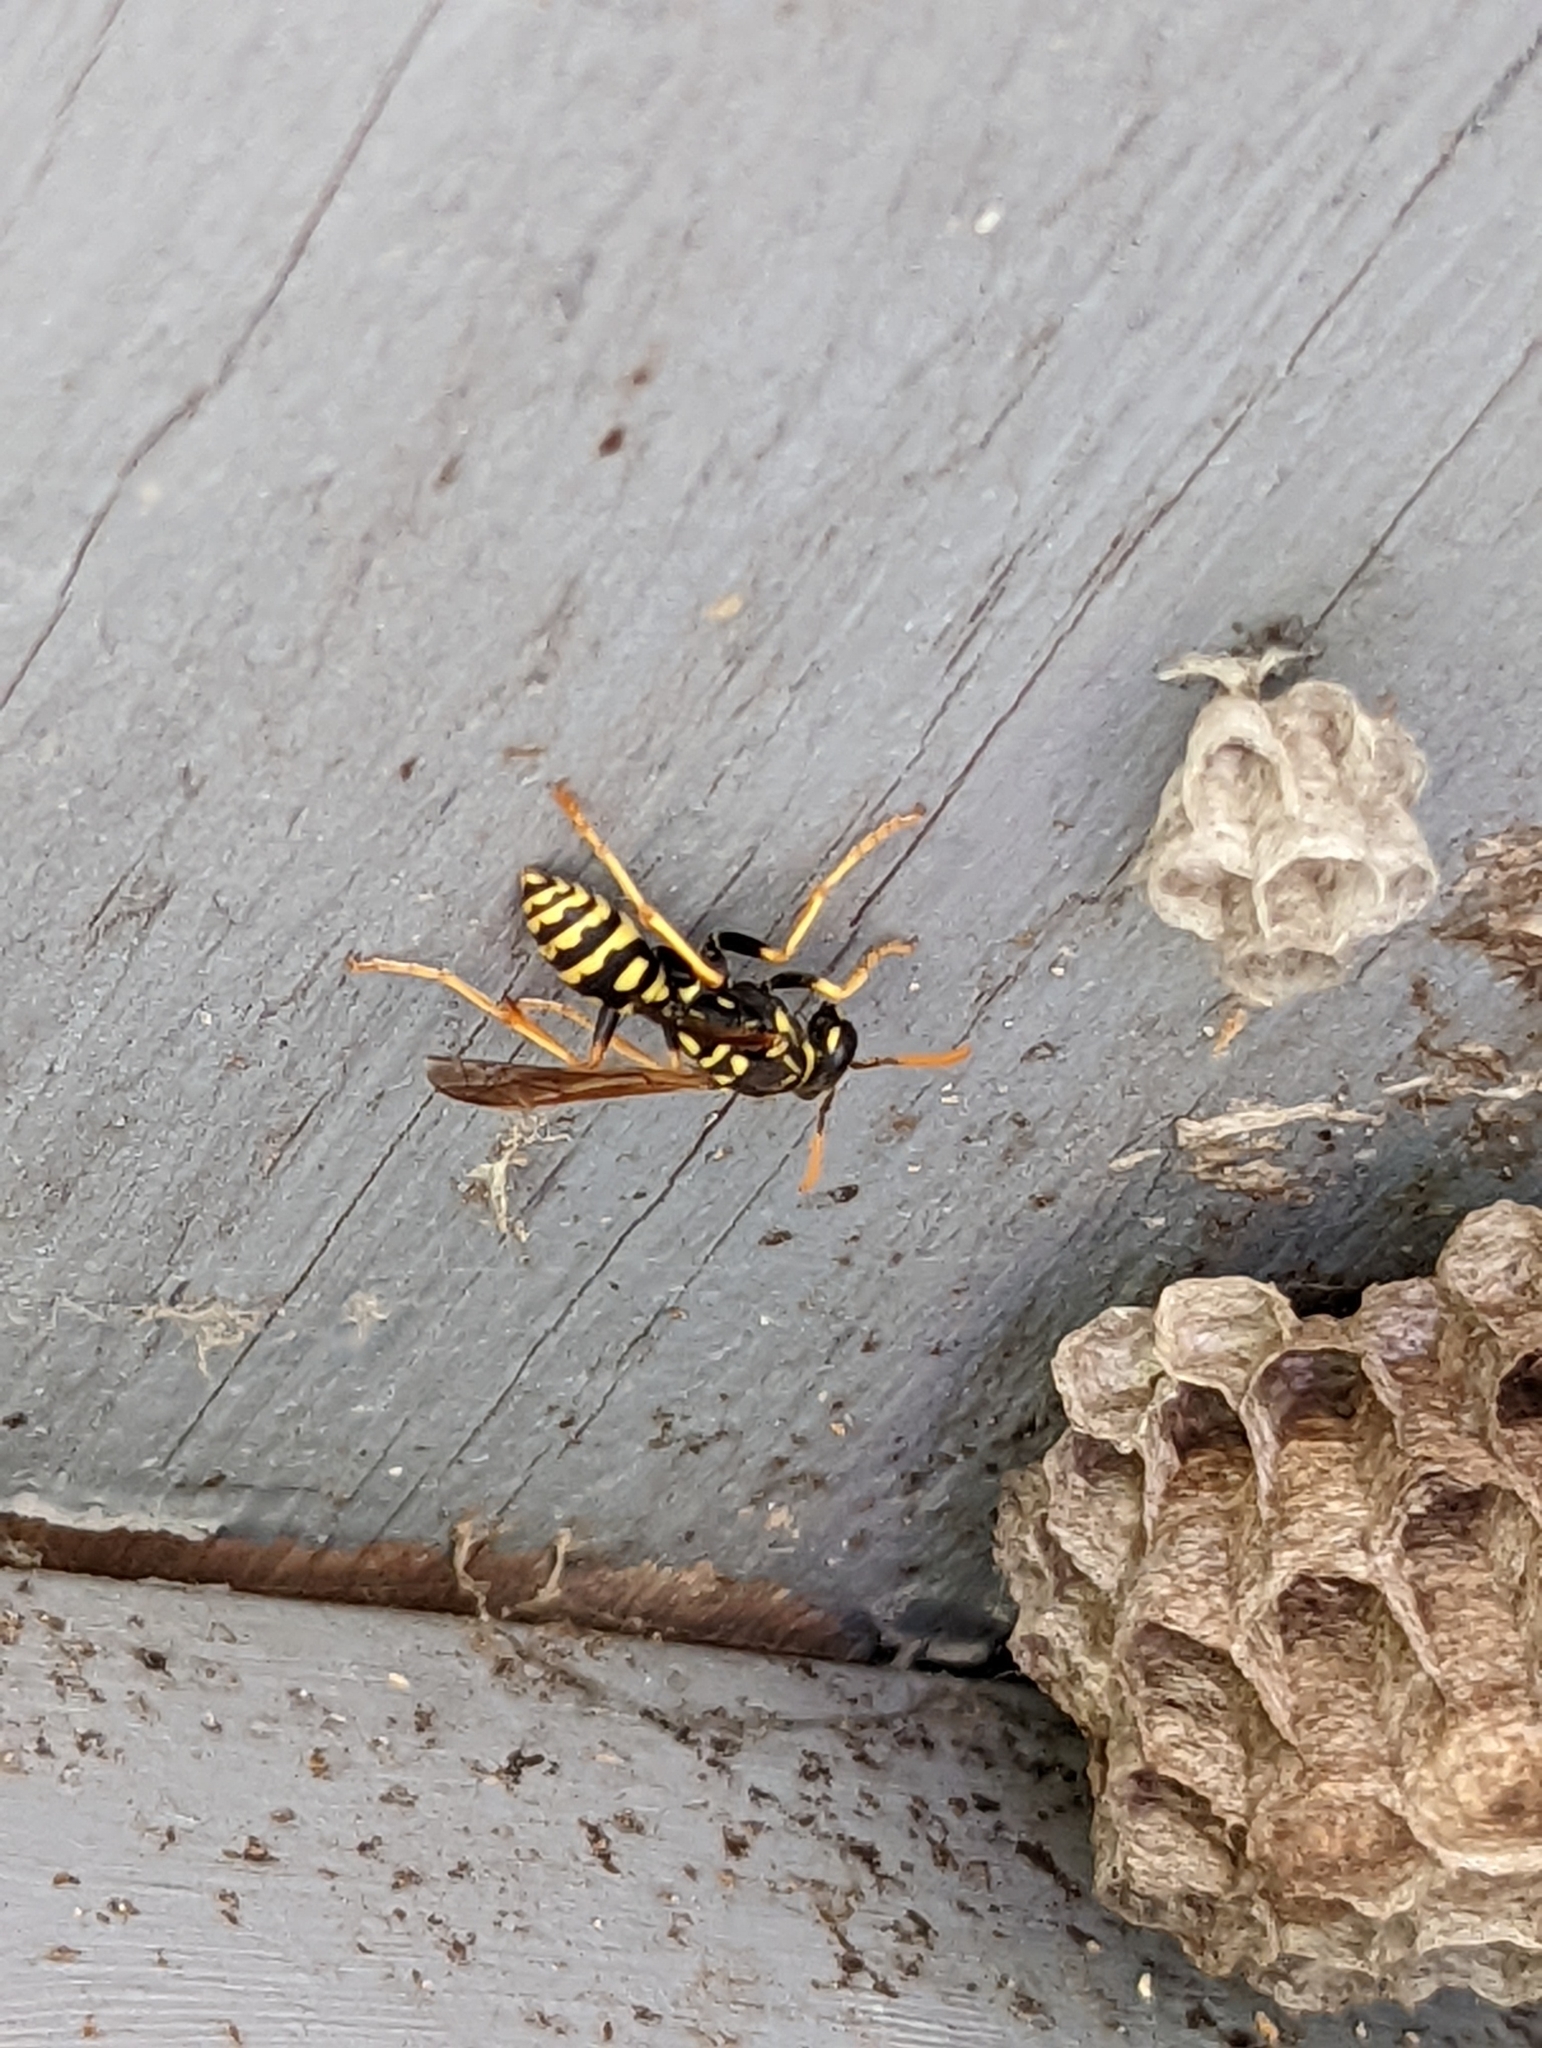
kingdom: Animalia
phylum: Arthropoda
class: Insecta
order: Hymenoptera
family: Eumenidae
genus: Polistes
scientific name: Polistes dominula
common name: Paper wasp
